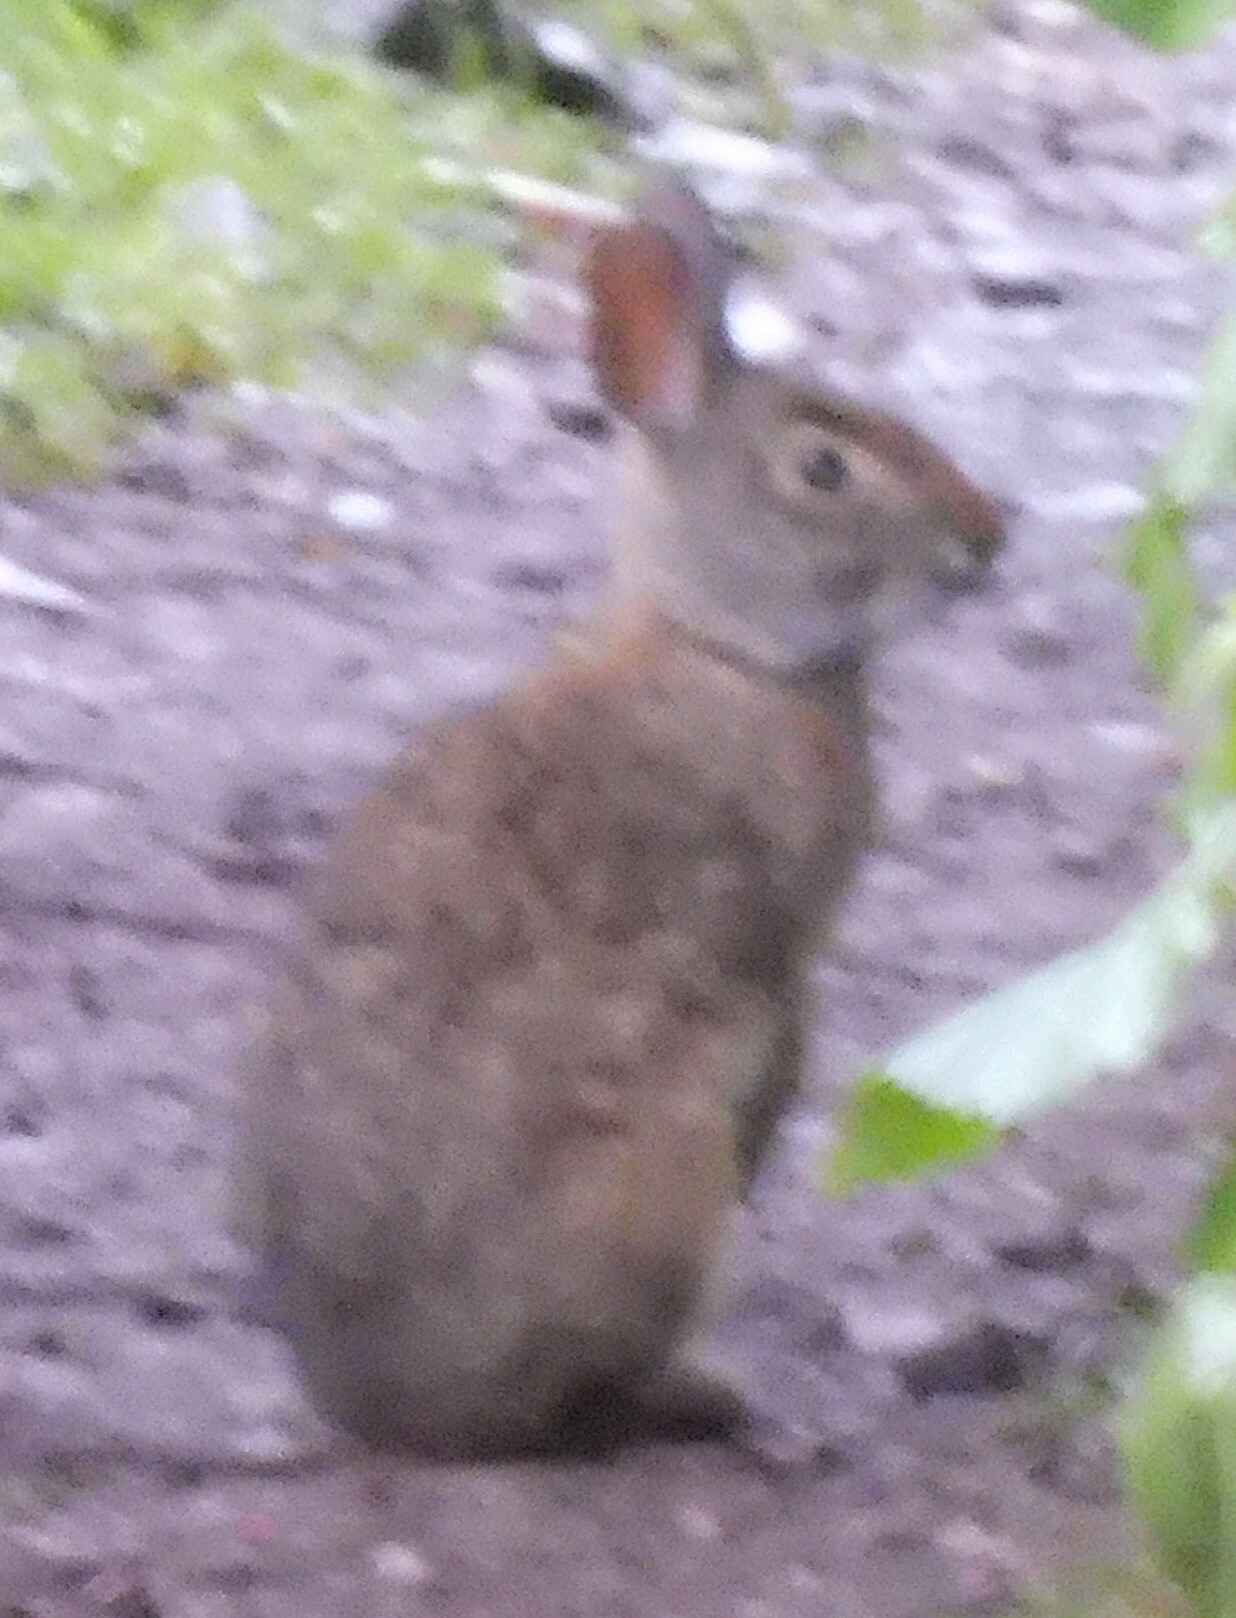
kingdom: Animalia
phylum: Chordata
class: Mammalia
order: Lagomorpha
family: Leporidae
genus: Sylvilagus
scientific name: Sylvilagus andinus
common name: Andean cottontail
